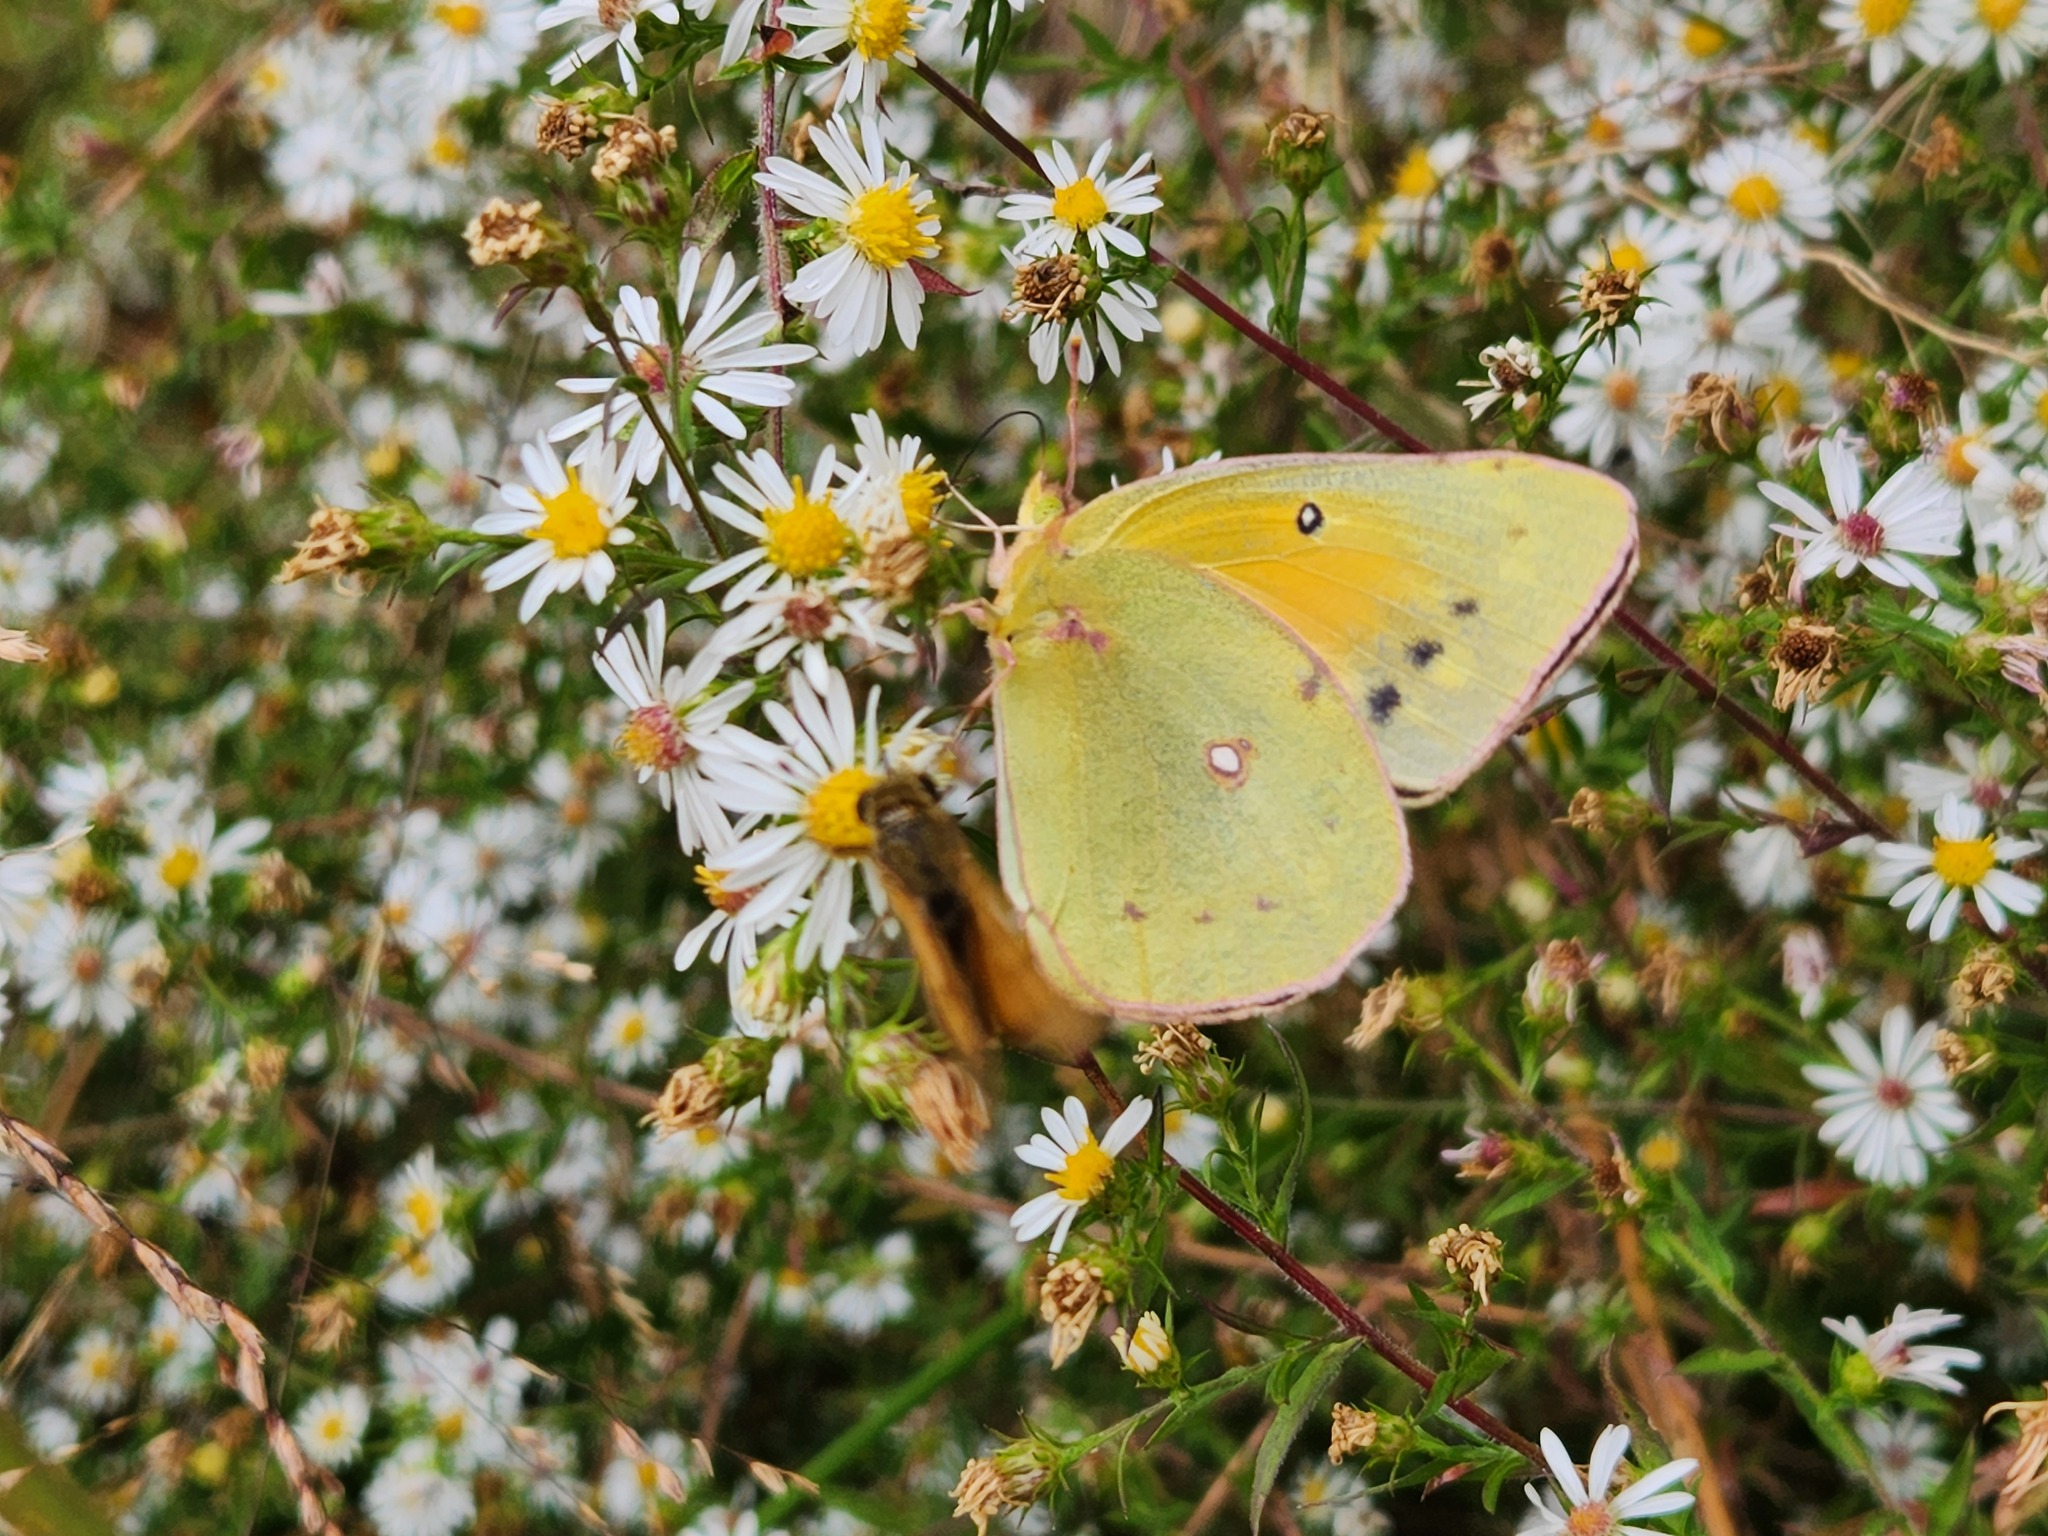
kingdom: Animalia
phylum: Arthropoda
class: Insecta
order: Lepidoptera
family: Pieridae
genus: Colias
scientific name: Colias eurytheme
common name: Alfalfa butterfly
